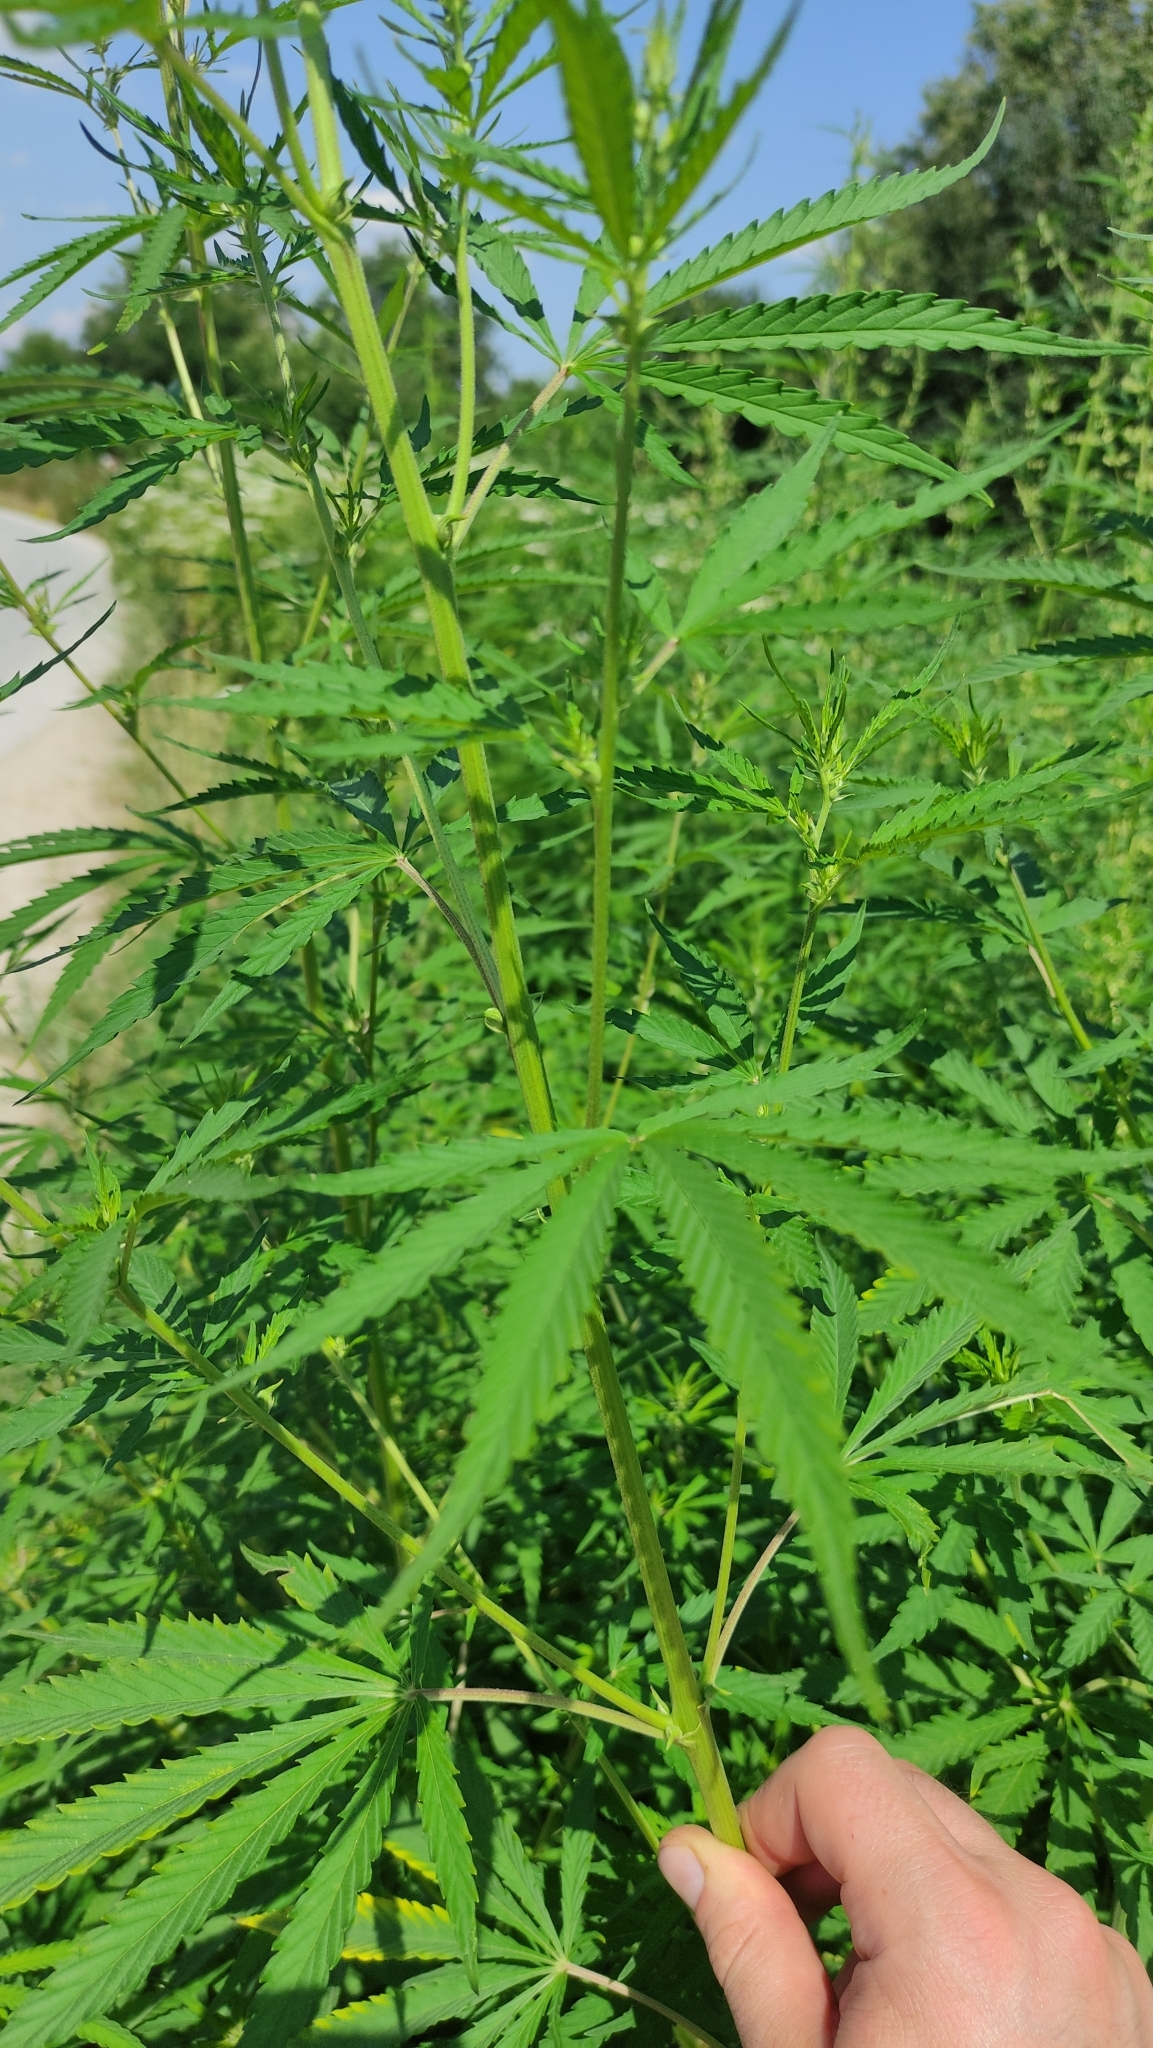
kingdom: Plantae
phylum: Tracheophyta
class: Magnoliopsida
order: Rosales
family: Cannabaceae
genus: Cannabis
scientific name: Cannabis sativa
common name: Hemp
